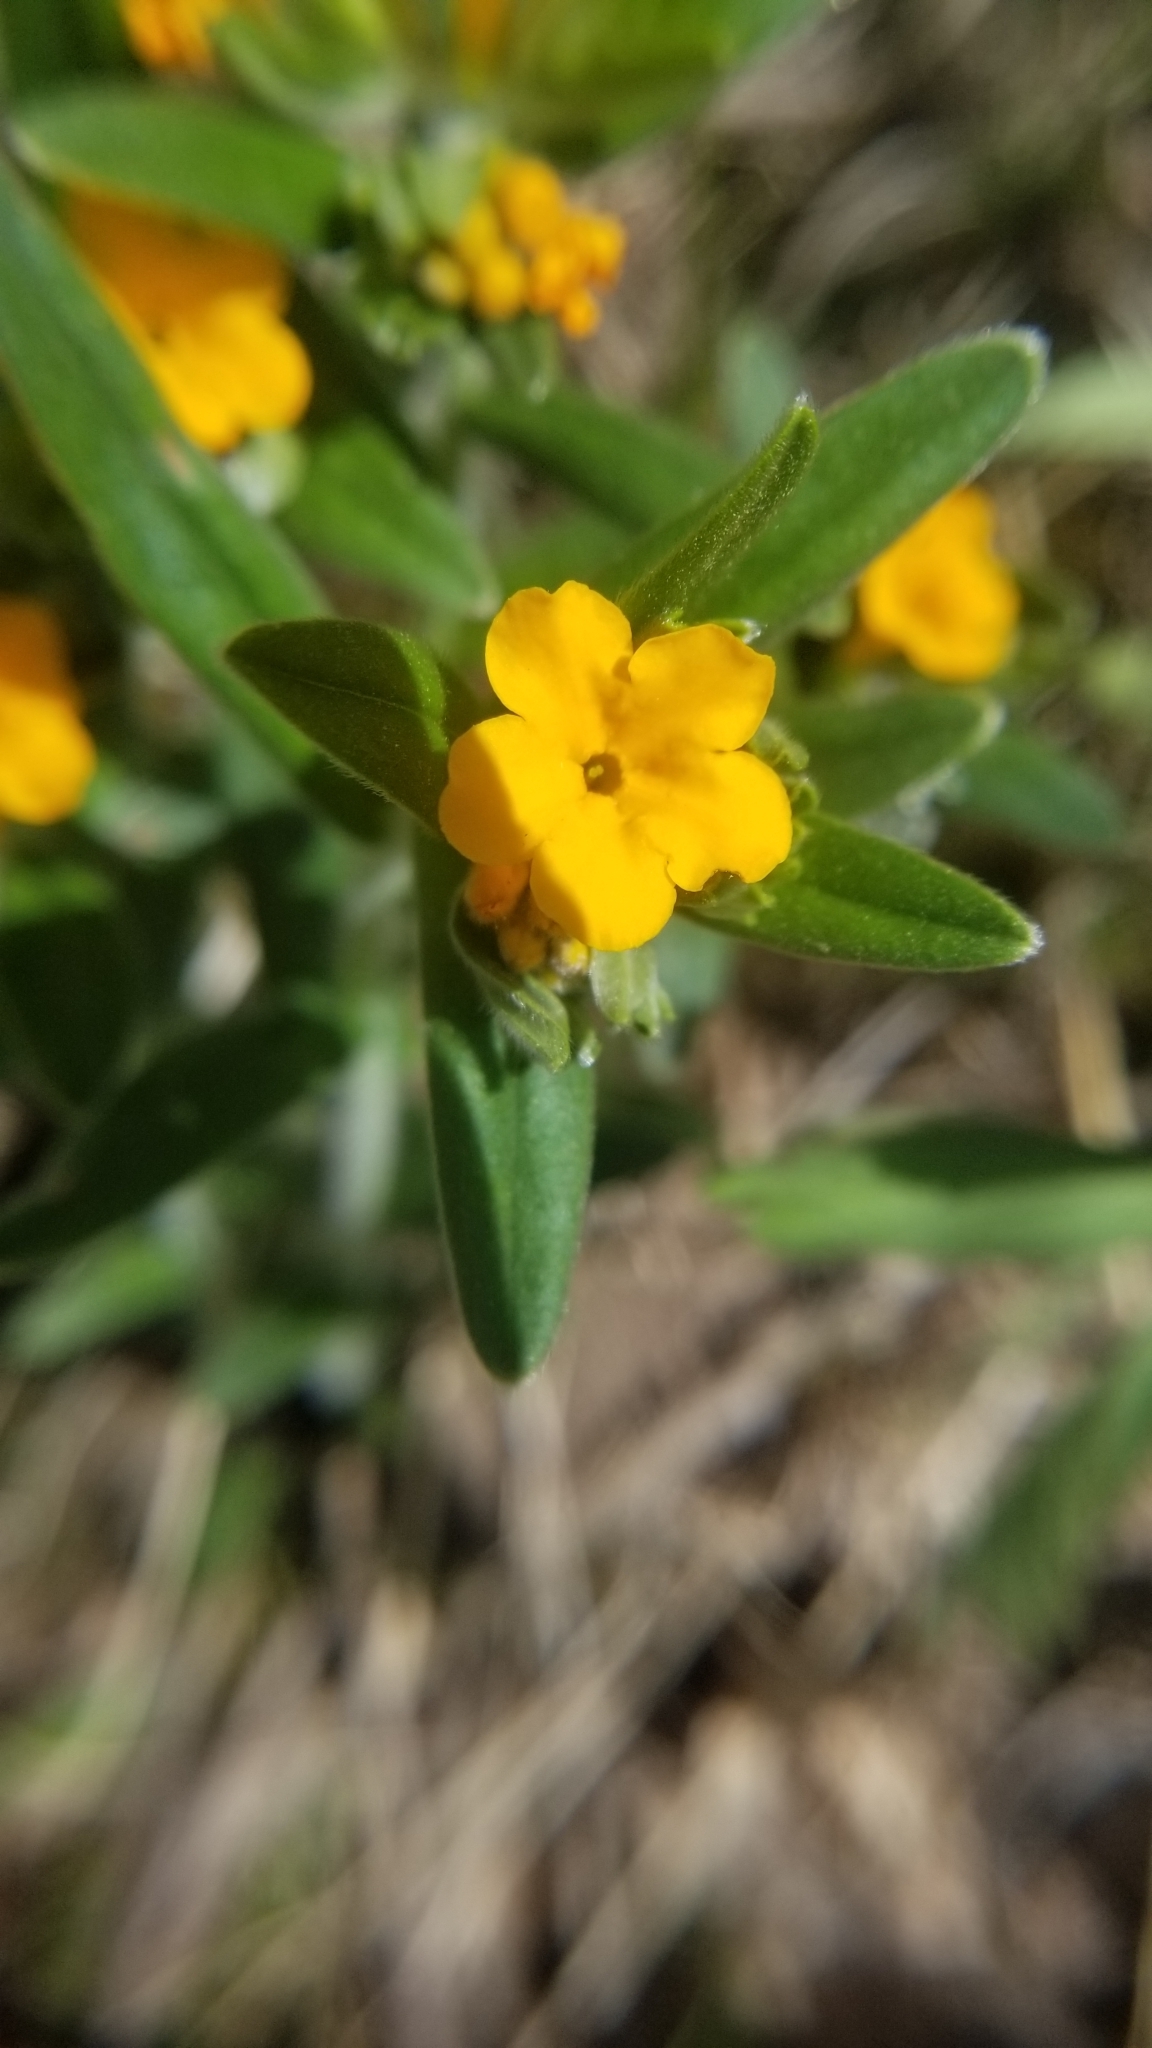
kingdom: Plantae
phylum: Tracheophyta
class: Magnoliopsida
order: Boraginales
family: Boraginaceae
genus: Lithospermum
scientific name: Lithospermum canescens
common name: Hoary puccoon
